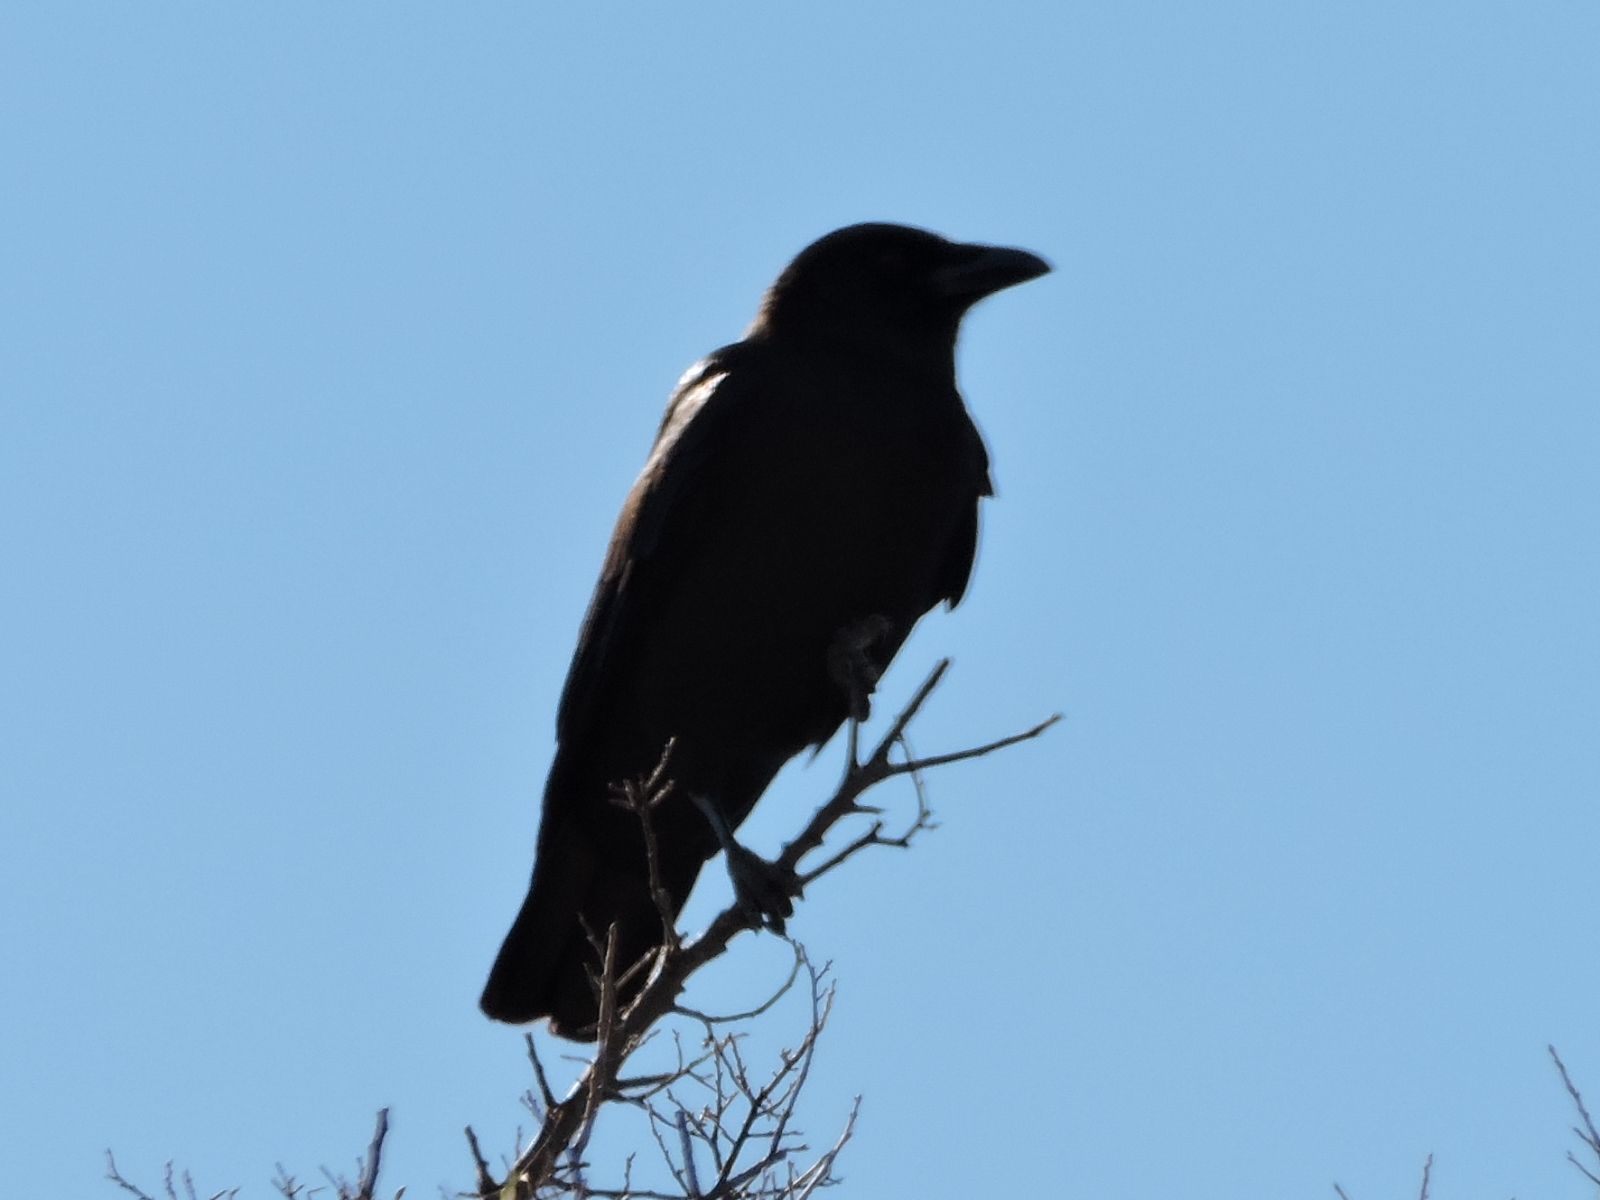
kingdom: Animalia
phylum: Chordata
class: Aves
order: Passeriformes
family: Corvidae
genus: Corvus
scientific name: Corvus brachyrhynchos
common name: American crow
